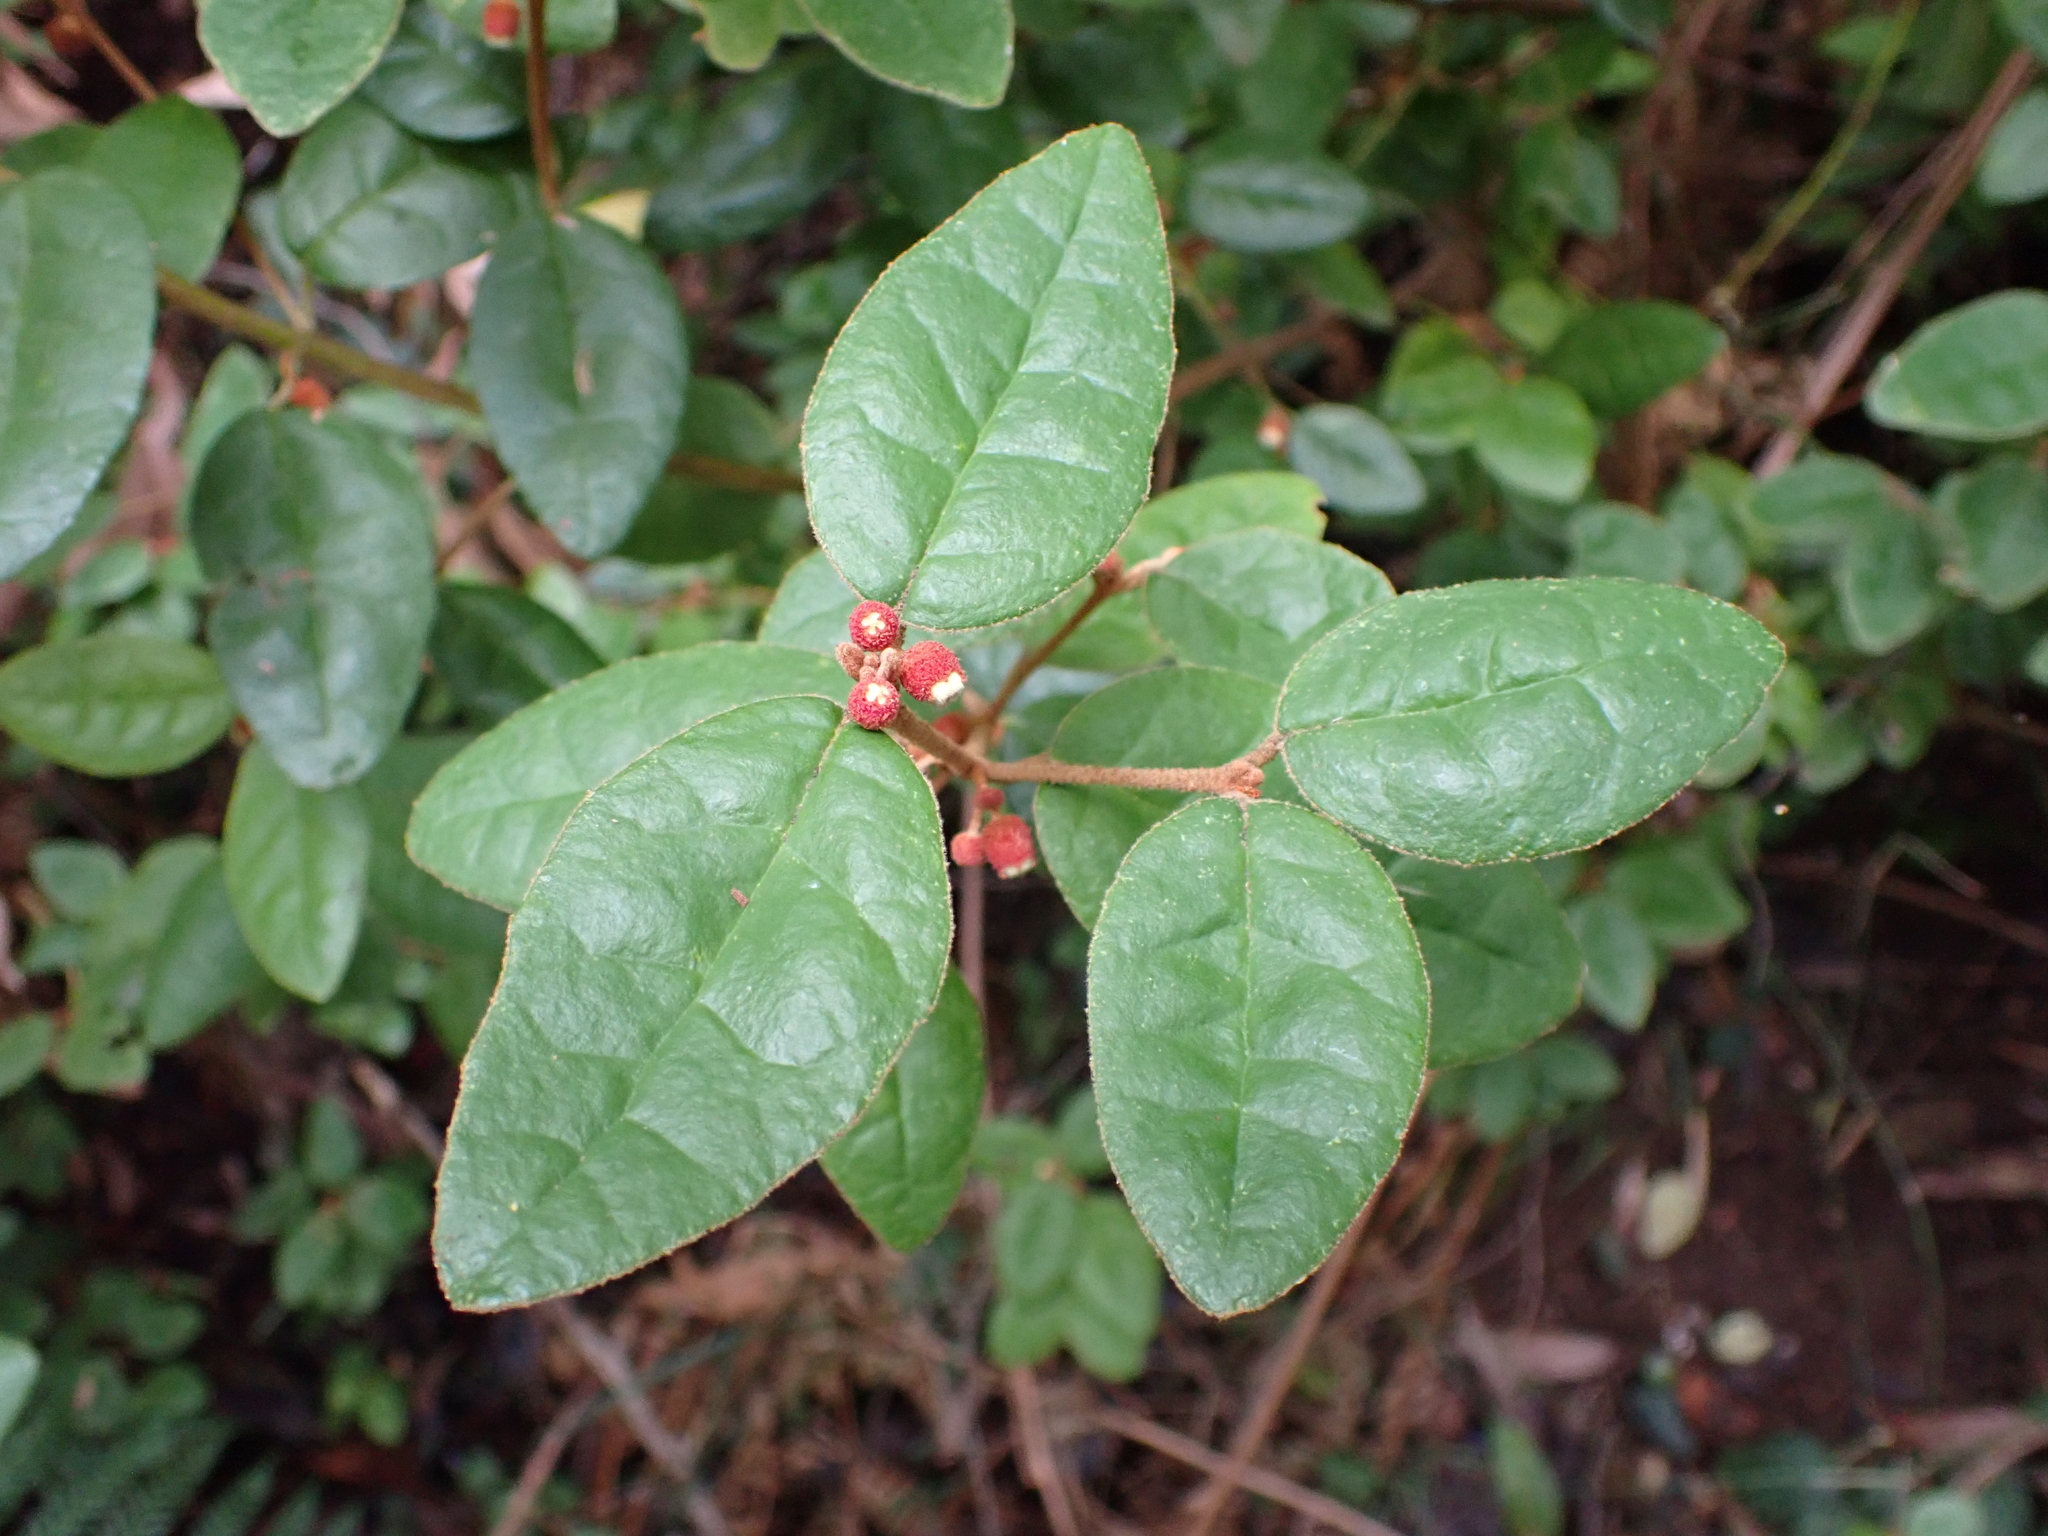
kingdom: Plantae
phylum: Tracheophyta
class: Magnoliopsida
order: Sapindales
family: Rutaceae
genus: Correa
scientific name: Correa lawrenceana
